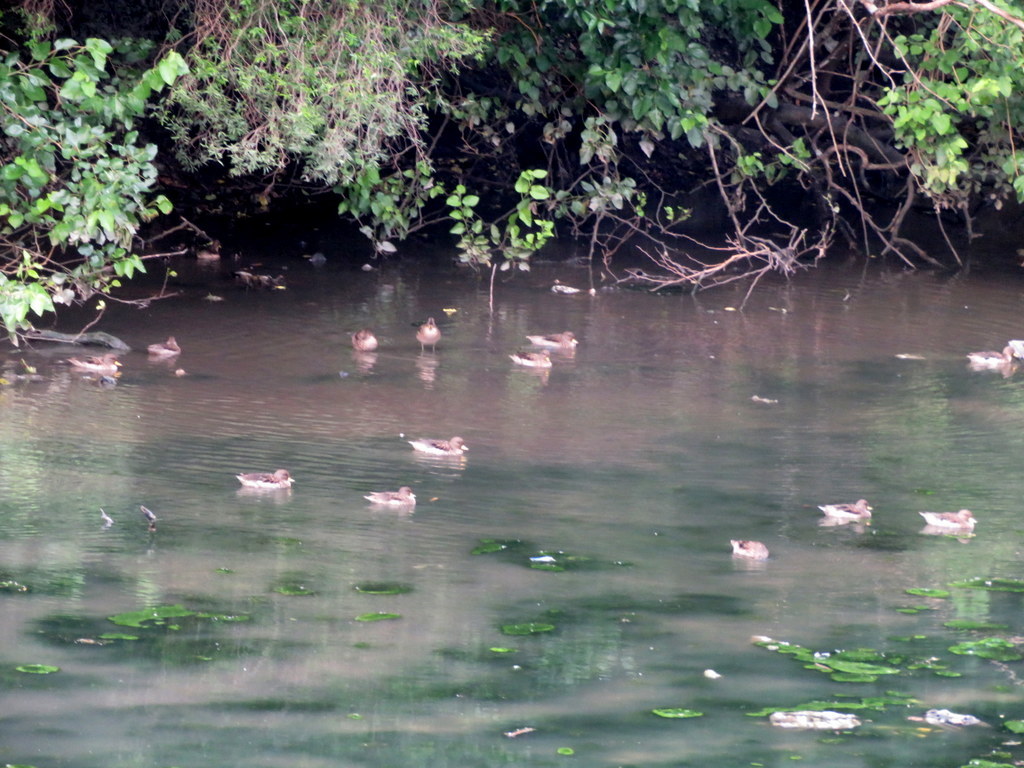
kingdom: Animalia
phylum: Chordata
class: Aves
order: Anseriformes
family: Anatidae
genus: Anas
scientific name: Anas flavirostris
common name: Yellow-billed teal
